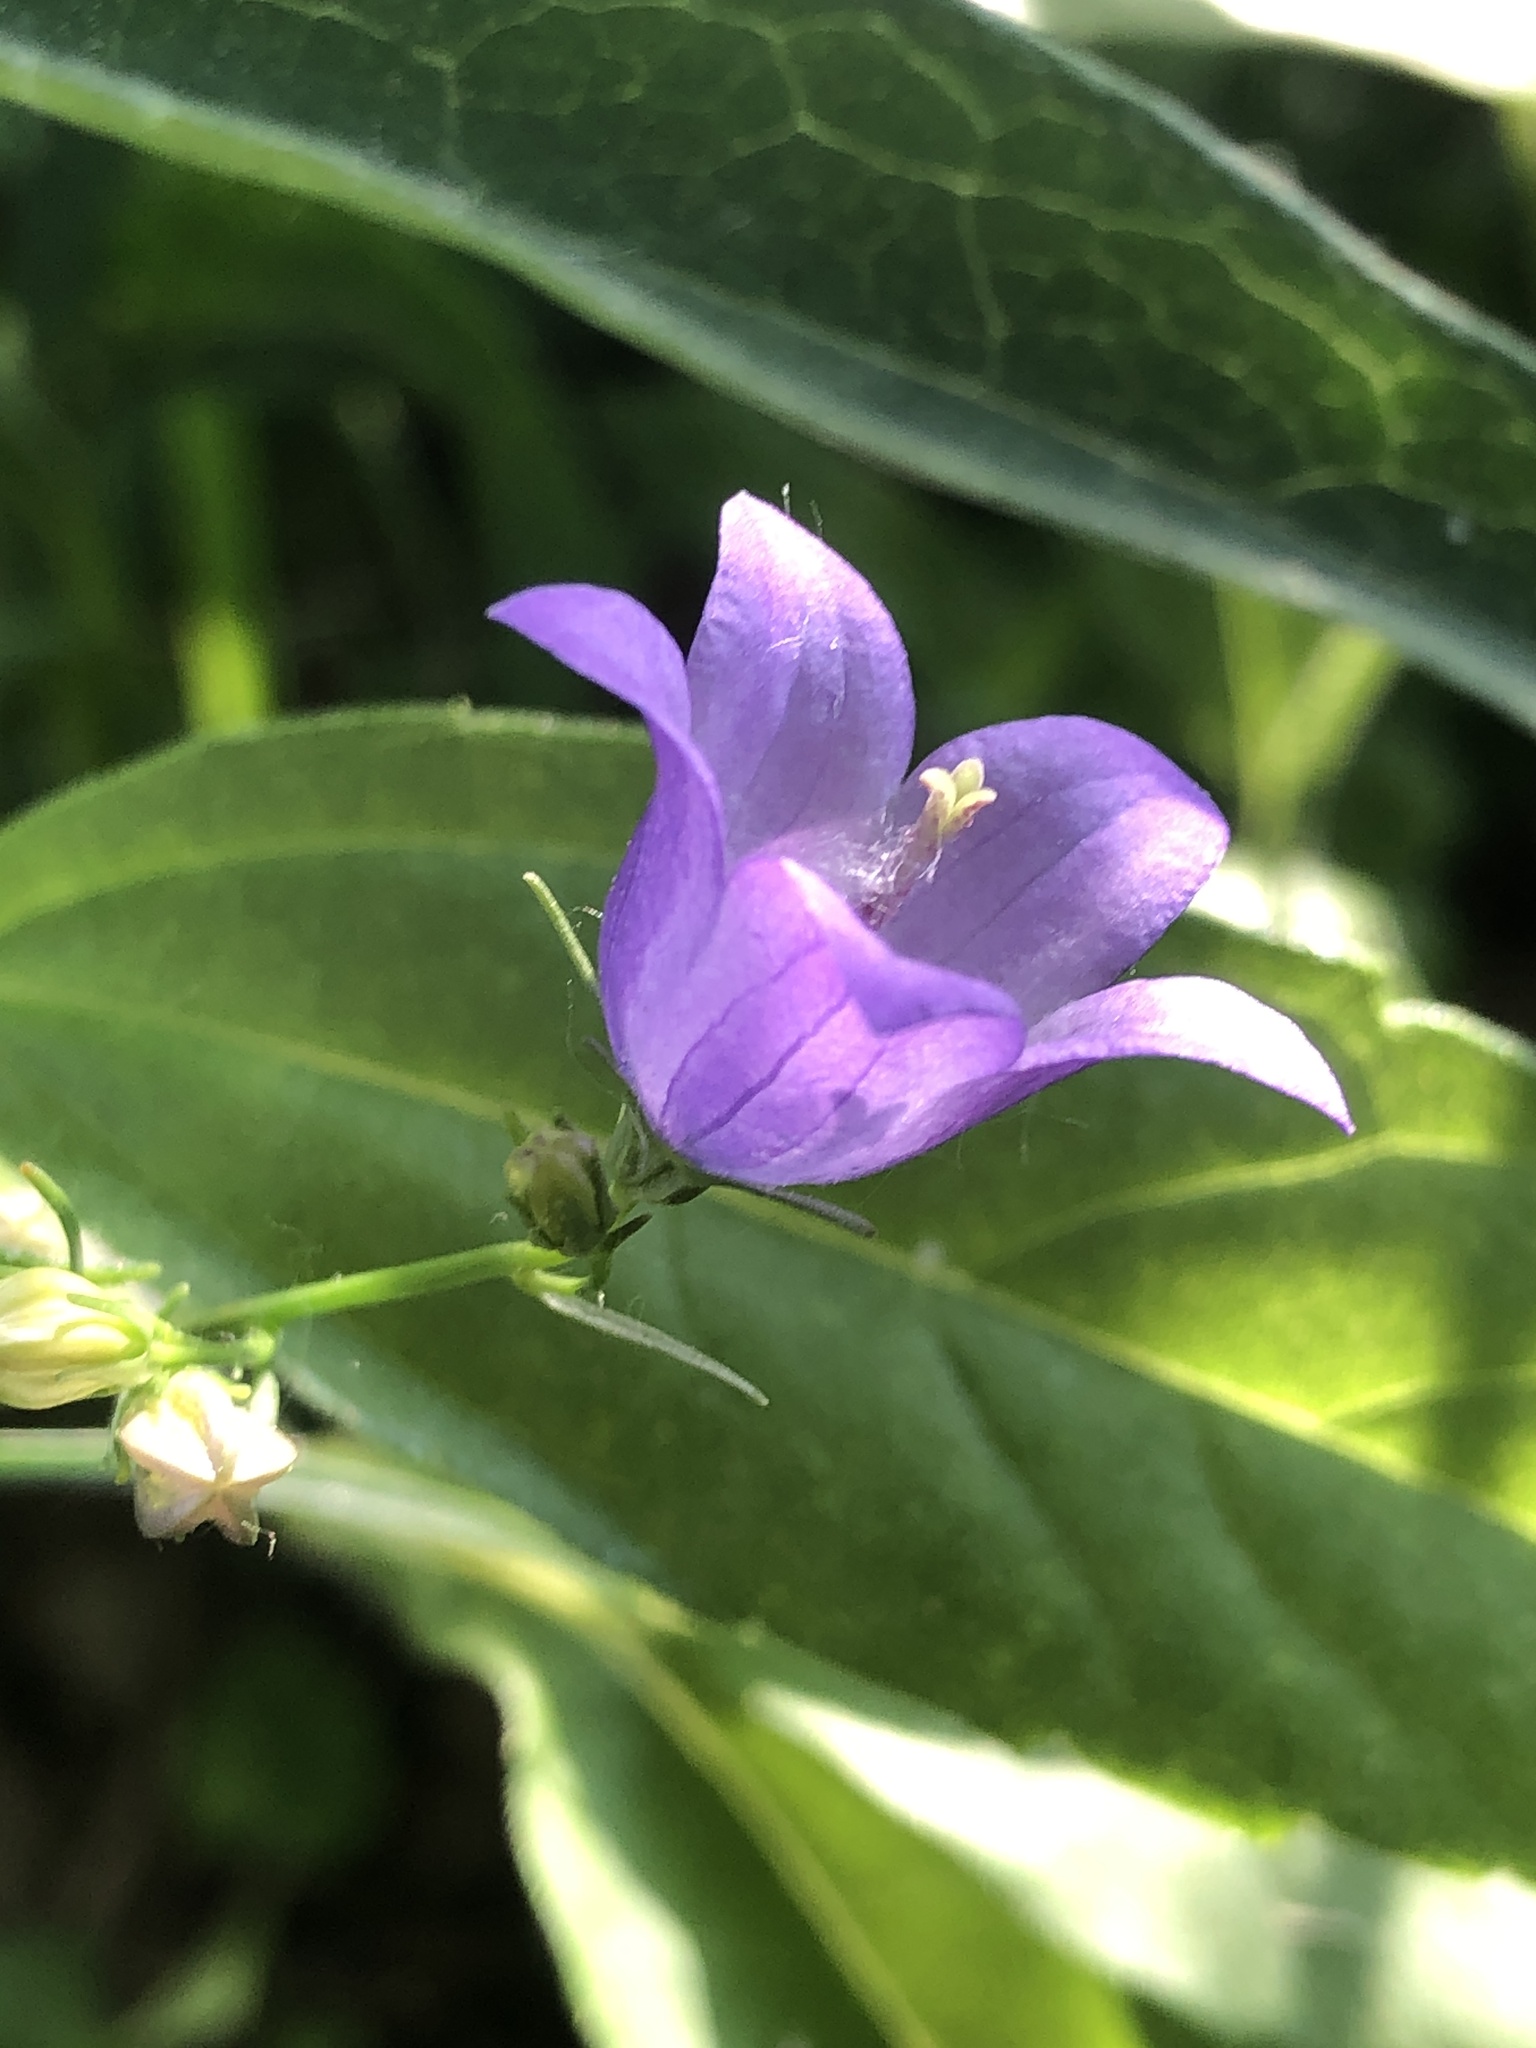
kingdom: Plantae
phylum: Tracheophyta
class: Magnoliopsida
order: Asterales
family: Campanulaceae
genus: Campanula
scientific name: Campanula intercedens
